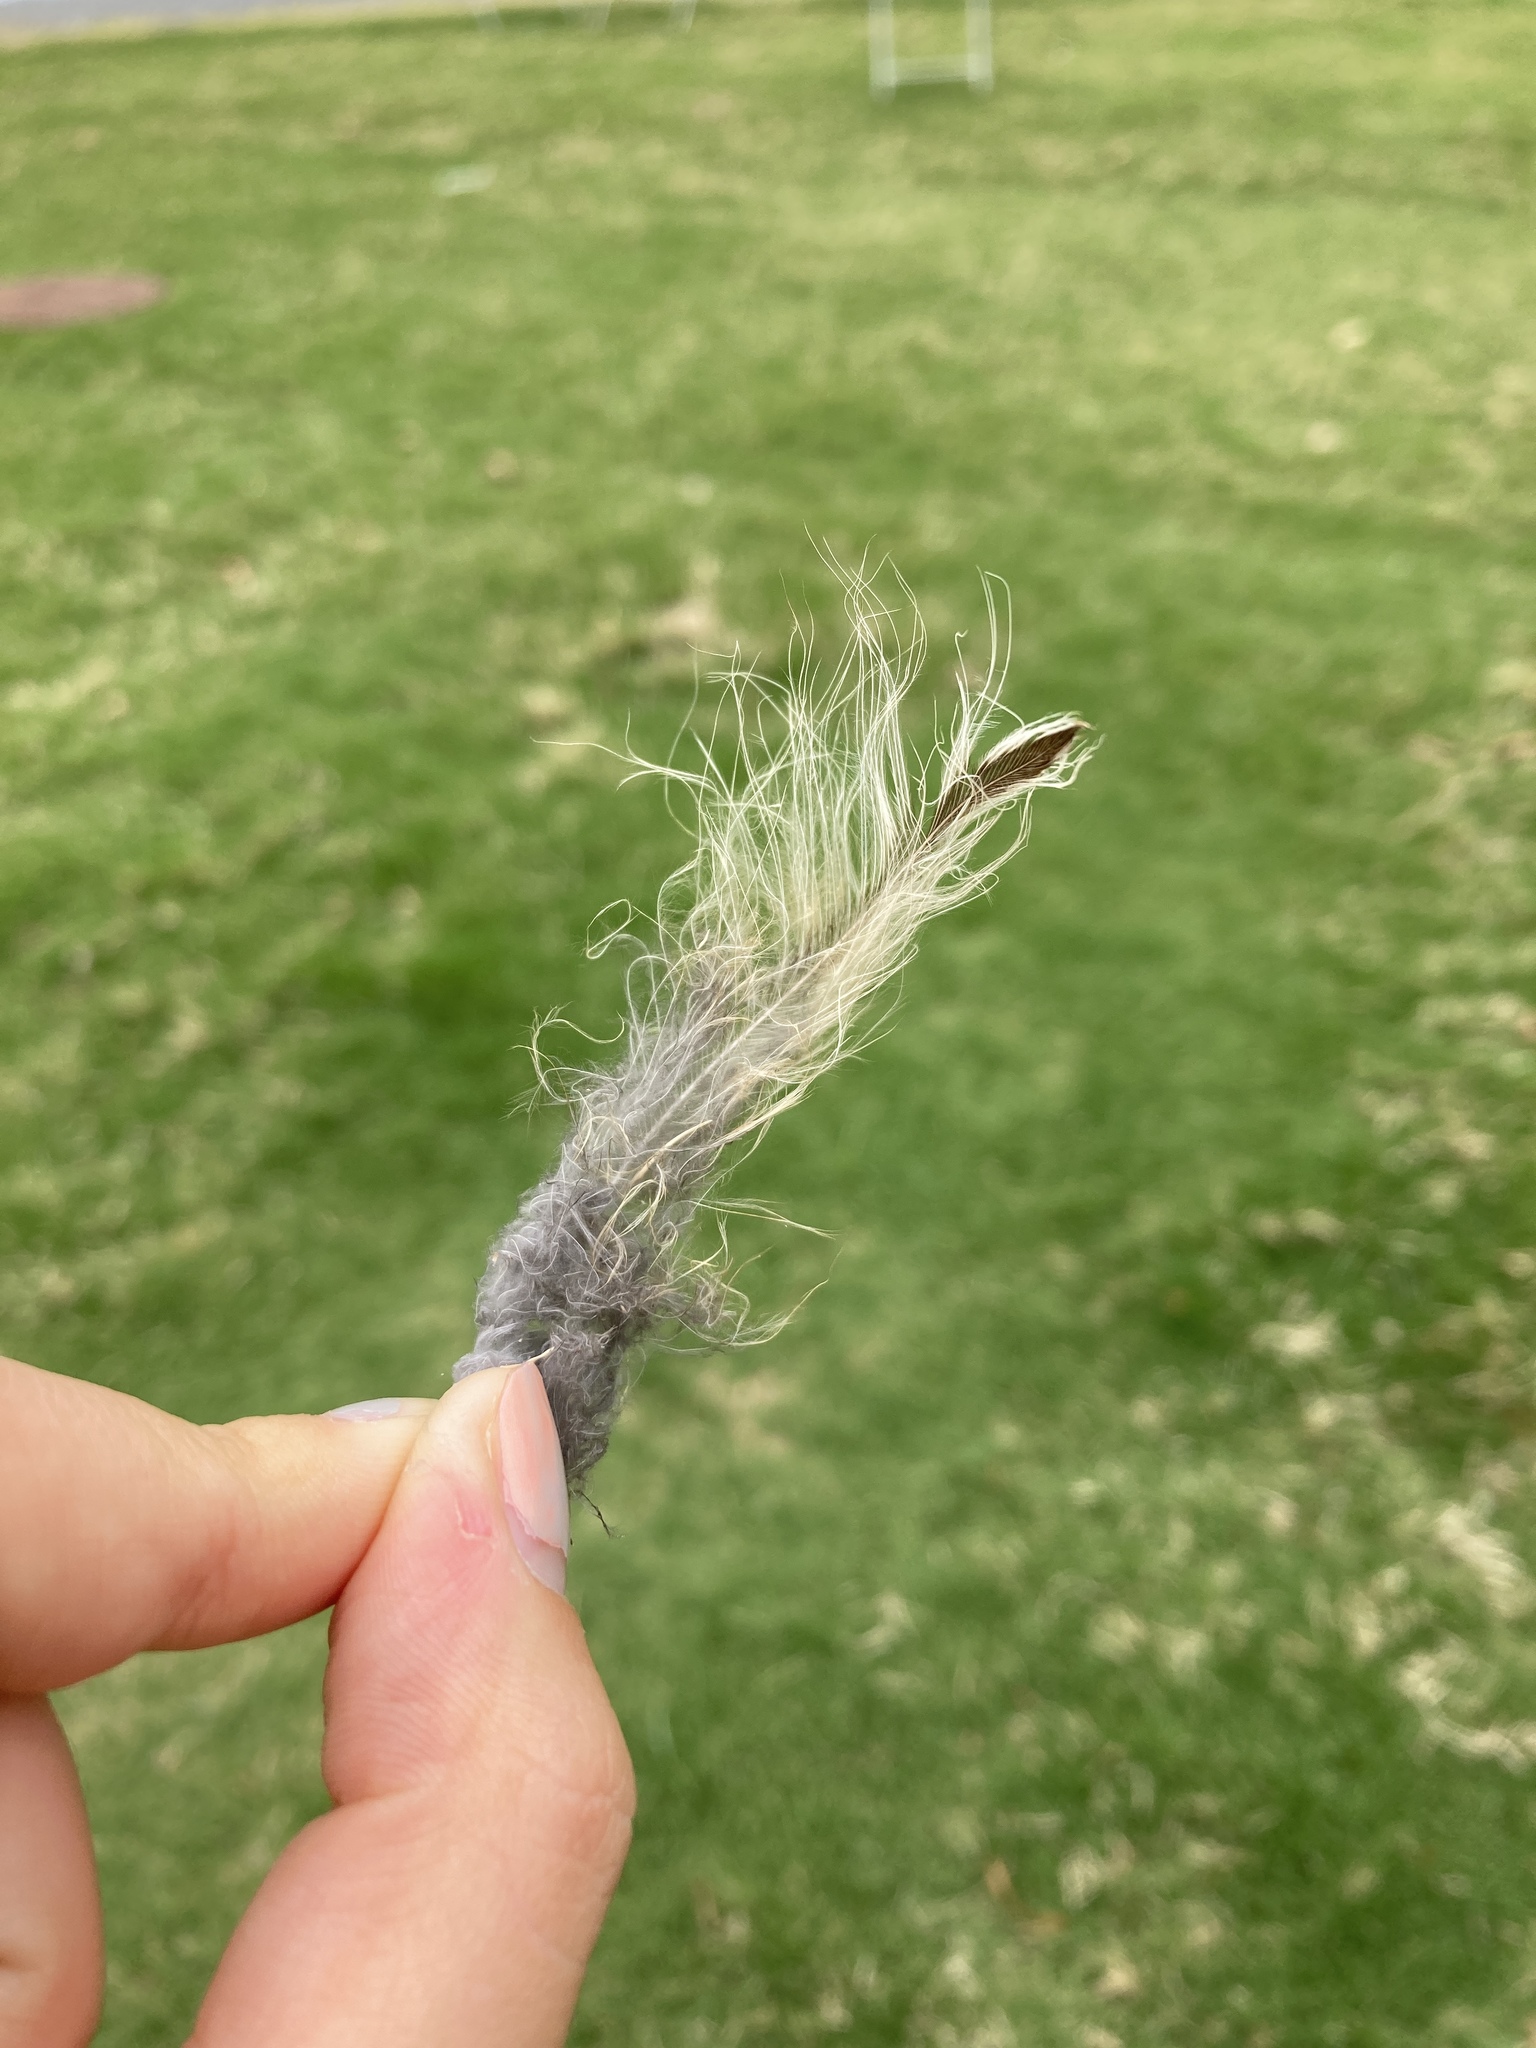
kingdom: Animalia
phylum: Chordata
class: Aves
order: Strigiformes
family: Strigidae
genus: Strix
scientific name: Strix varia
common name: Barred owl
